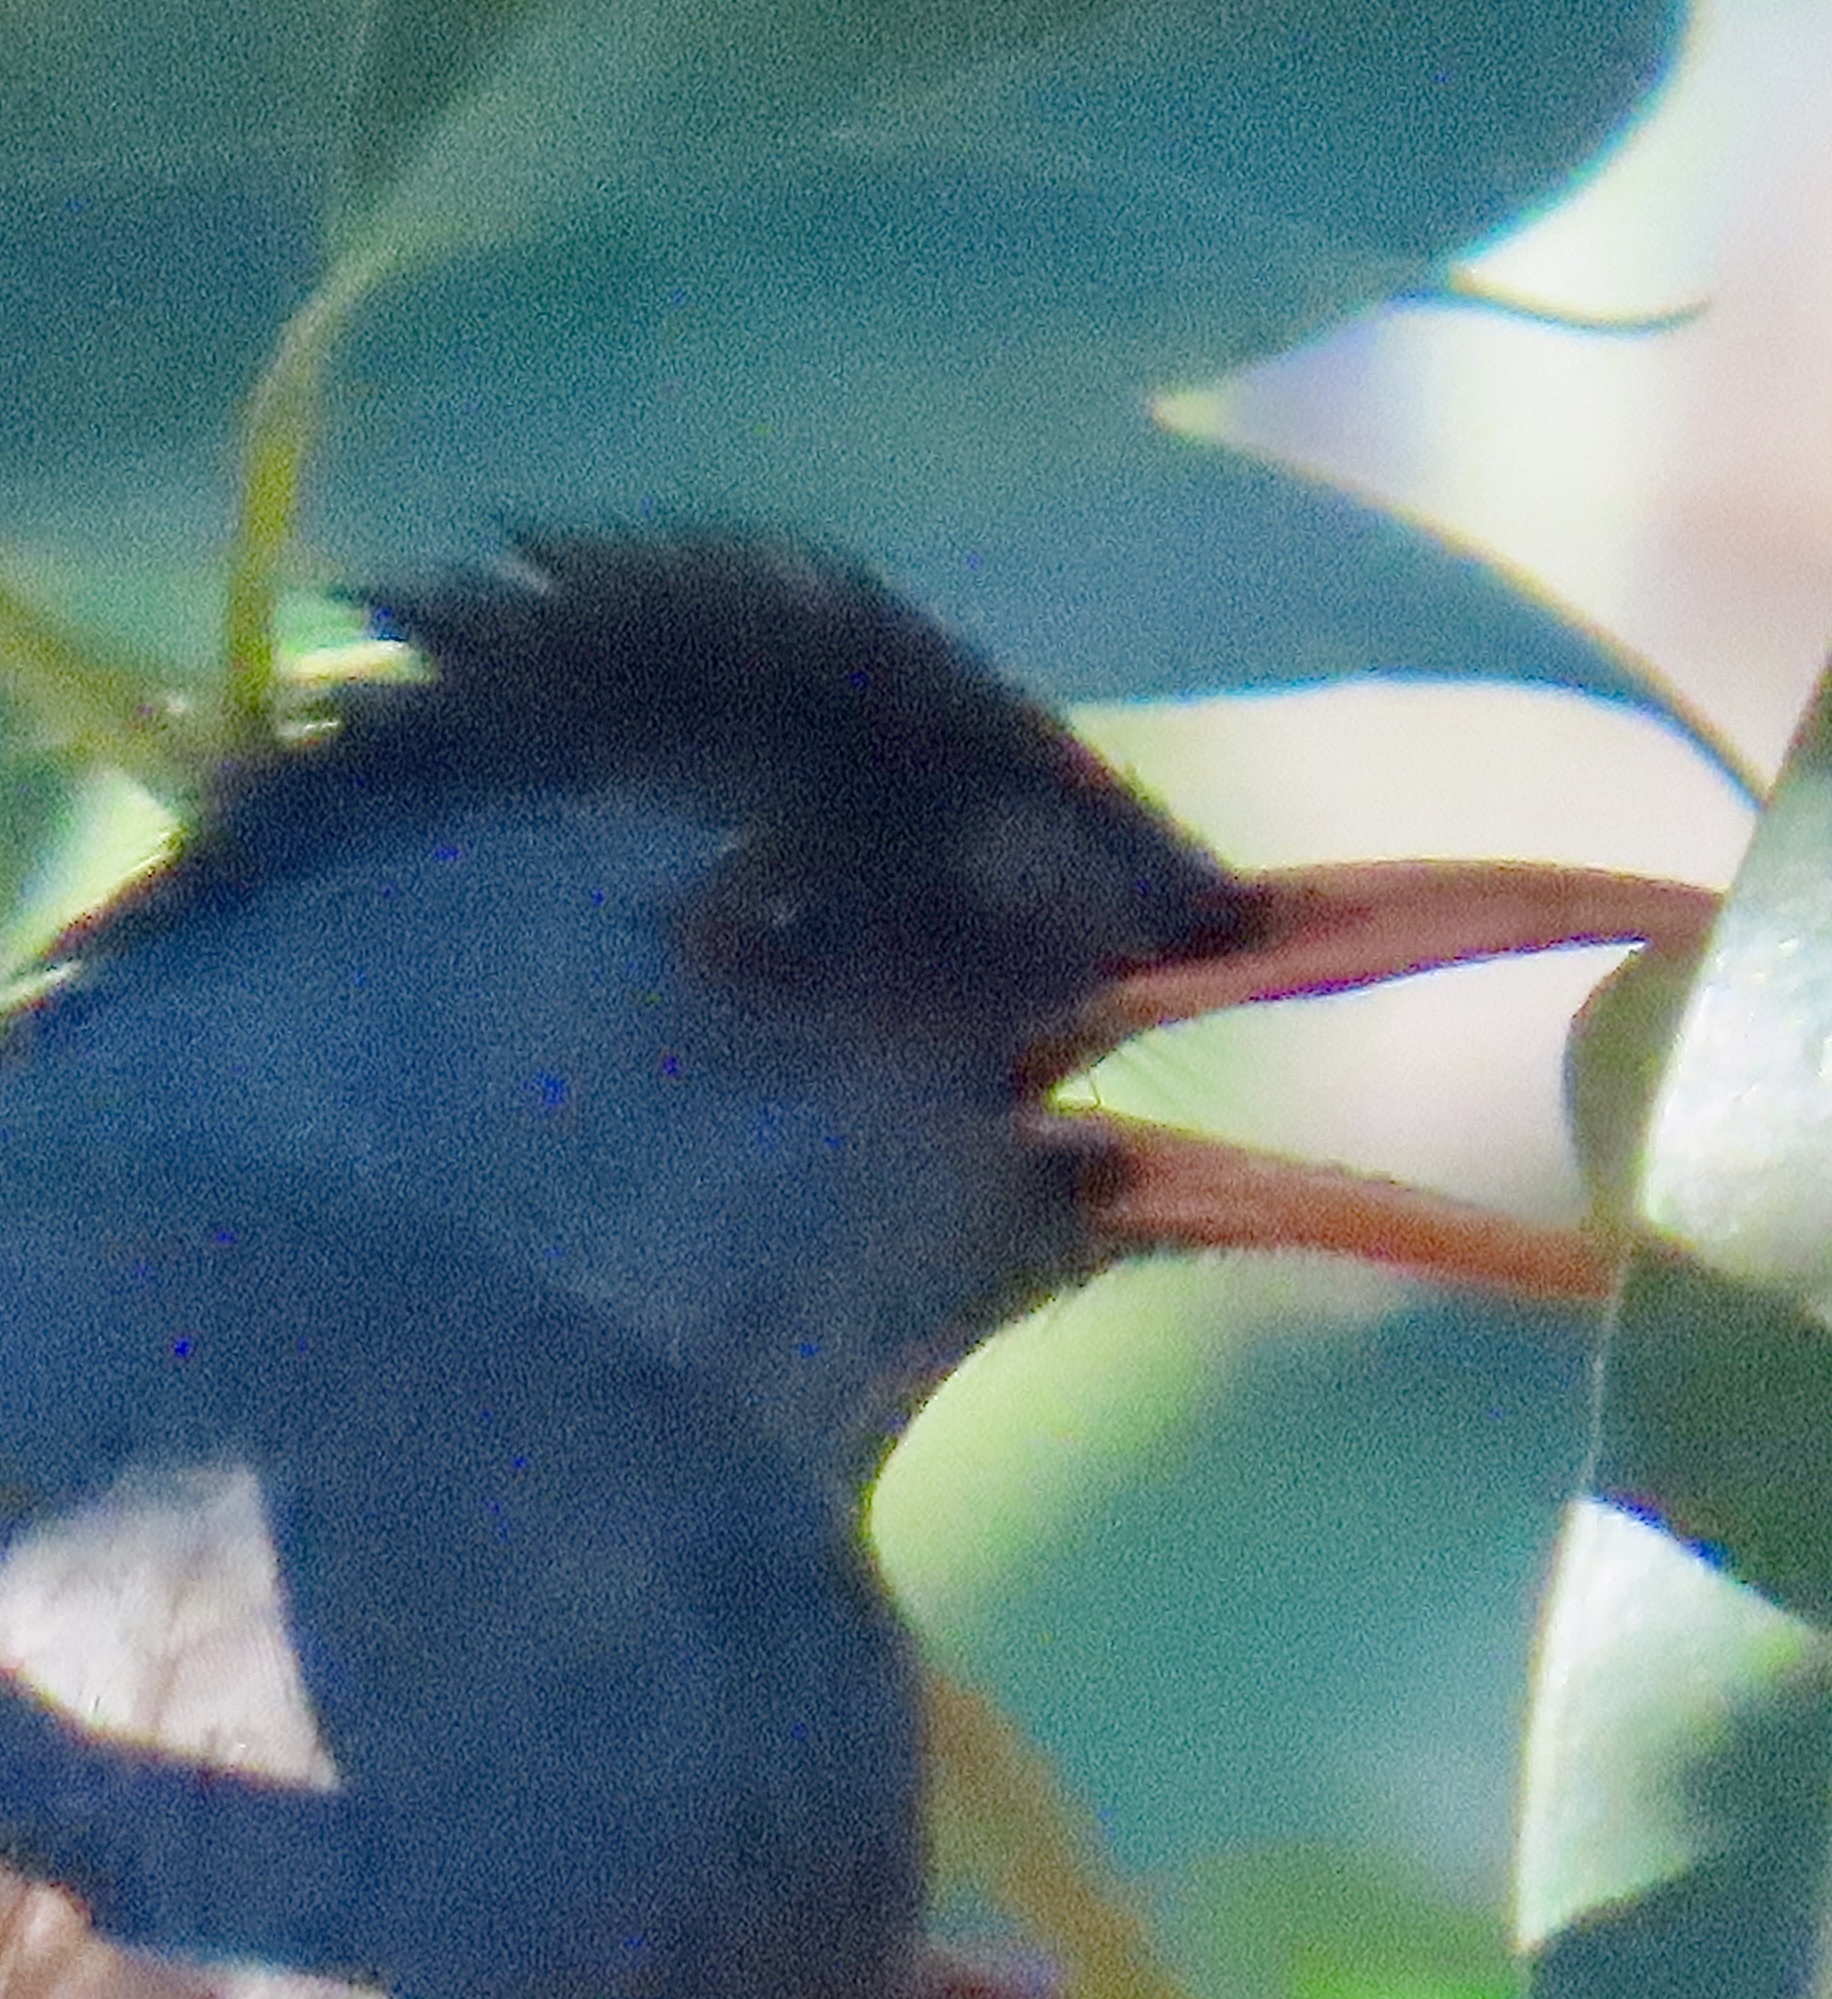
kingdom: Animalia
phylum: Chordata
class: Aves
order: Passeriformes
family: Pycnonotidae
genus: Hypsipetes
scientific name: Hypsipetes madagascariensis
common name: Malagasy bulbul
